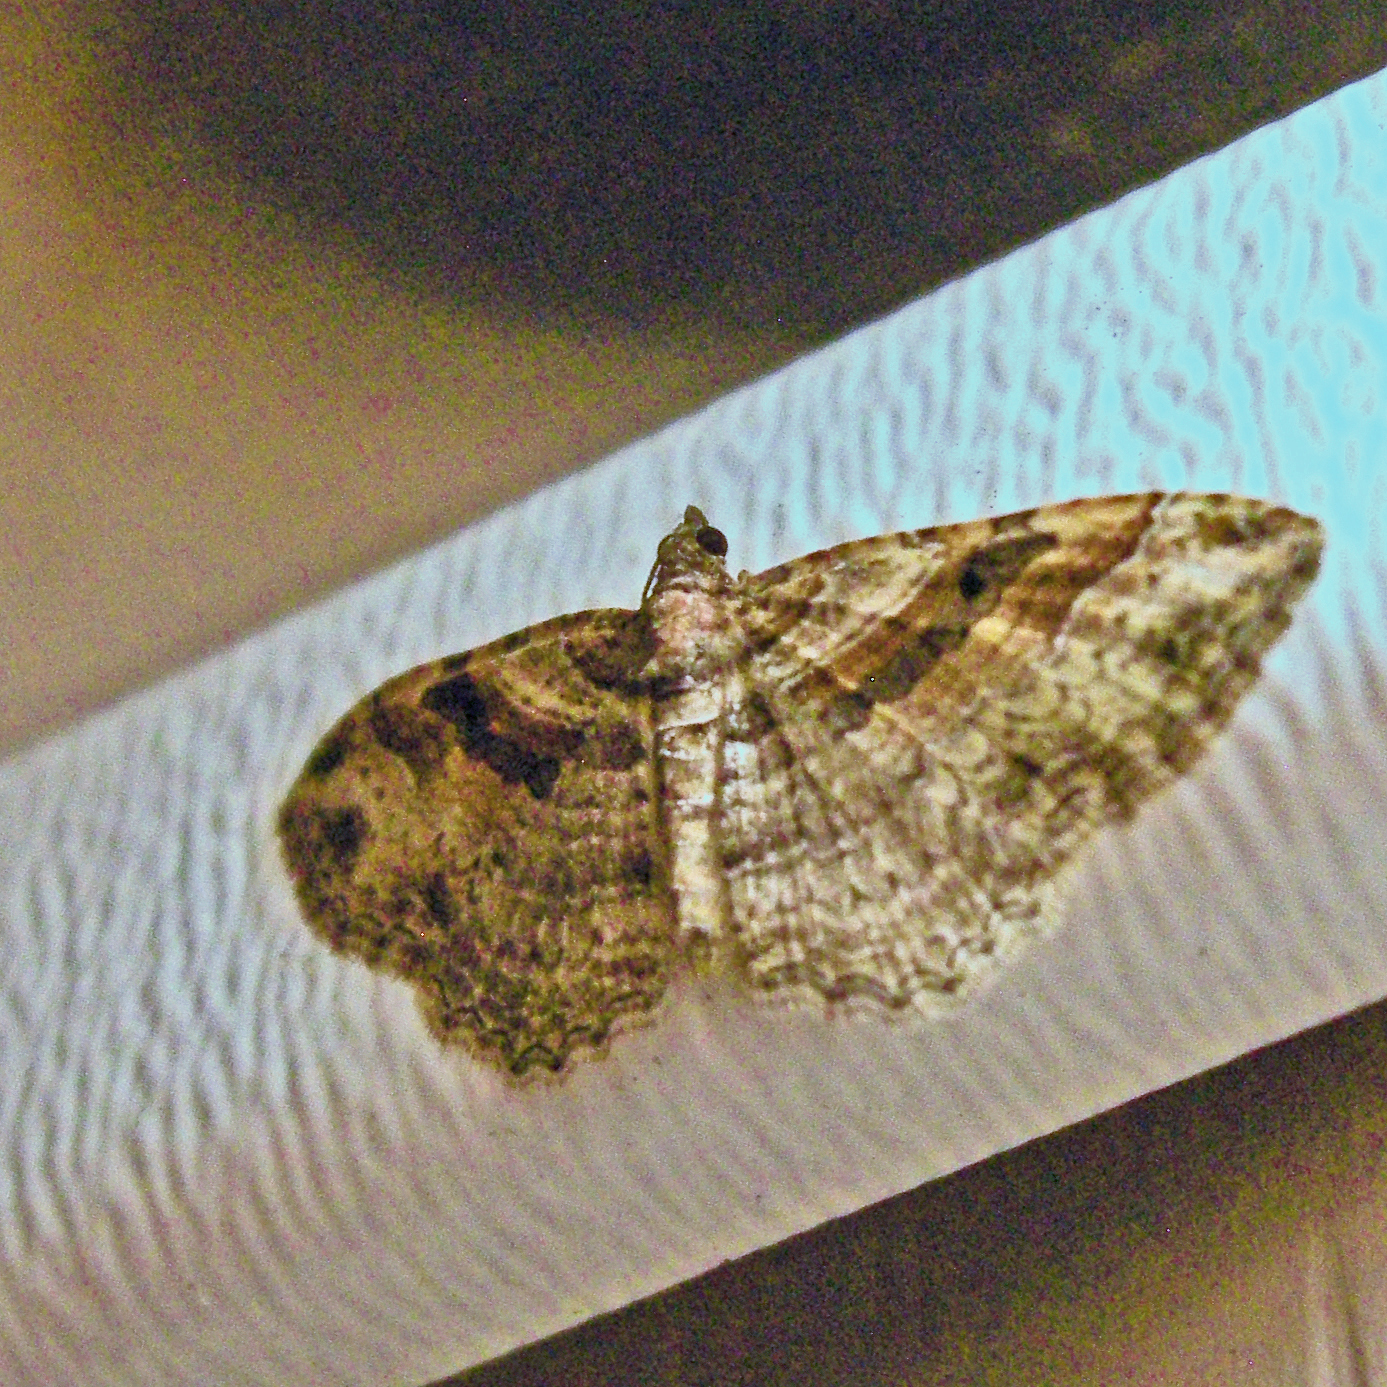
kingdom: Animalia
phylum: Arthropoda
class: Insecta
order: Lepidoptera
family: Geometridae
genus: Costaconvexa
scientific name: Costaconvexa centrostrigaria
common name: Bent-line carpet
